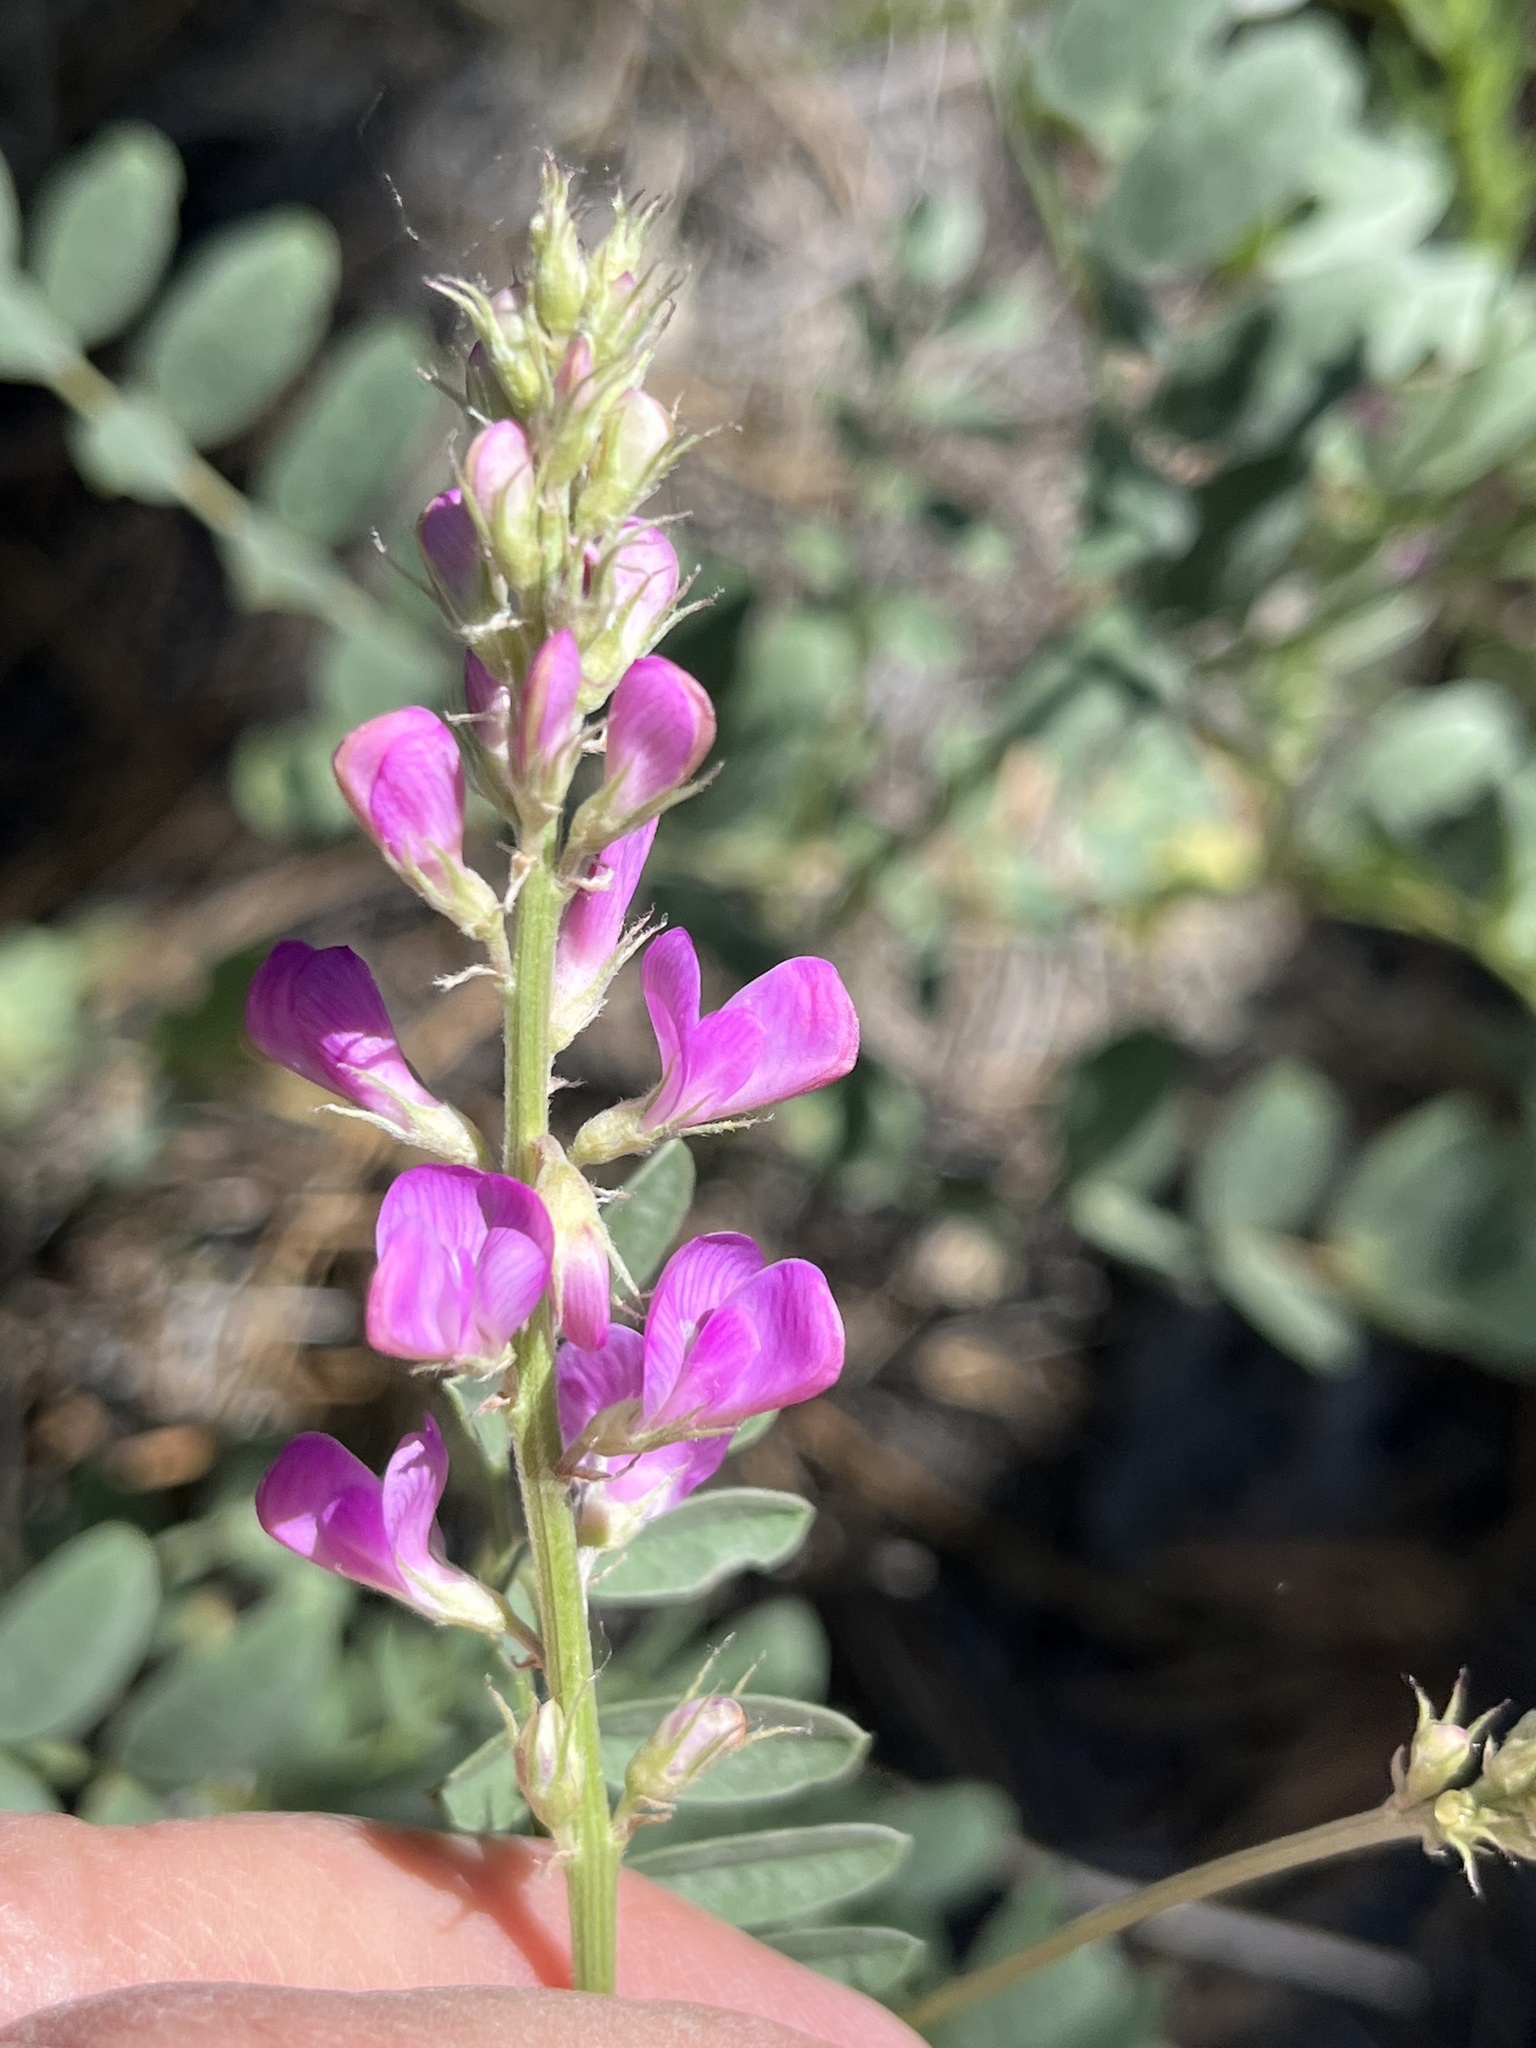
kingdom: Plantae
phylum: Tracheophyta
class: Magnoliopsida
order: Fabales
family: Fabaceae
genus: Hedysarum
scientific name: Hedysarum boreale
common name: Northern sweet-vetch
